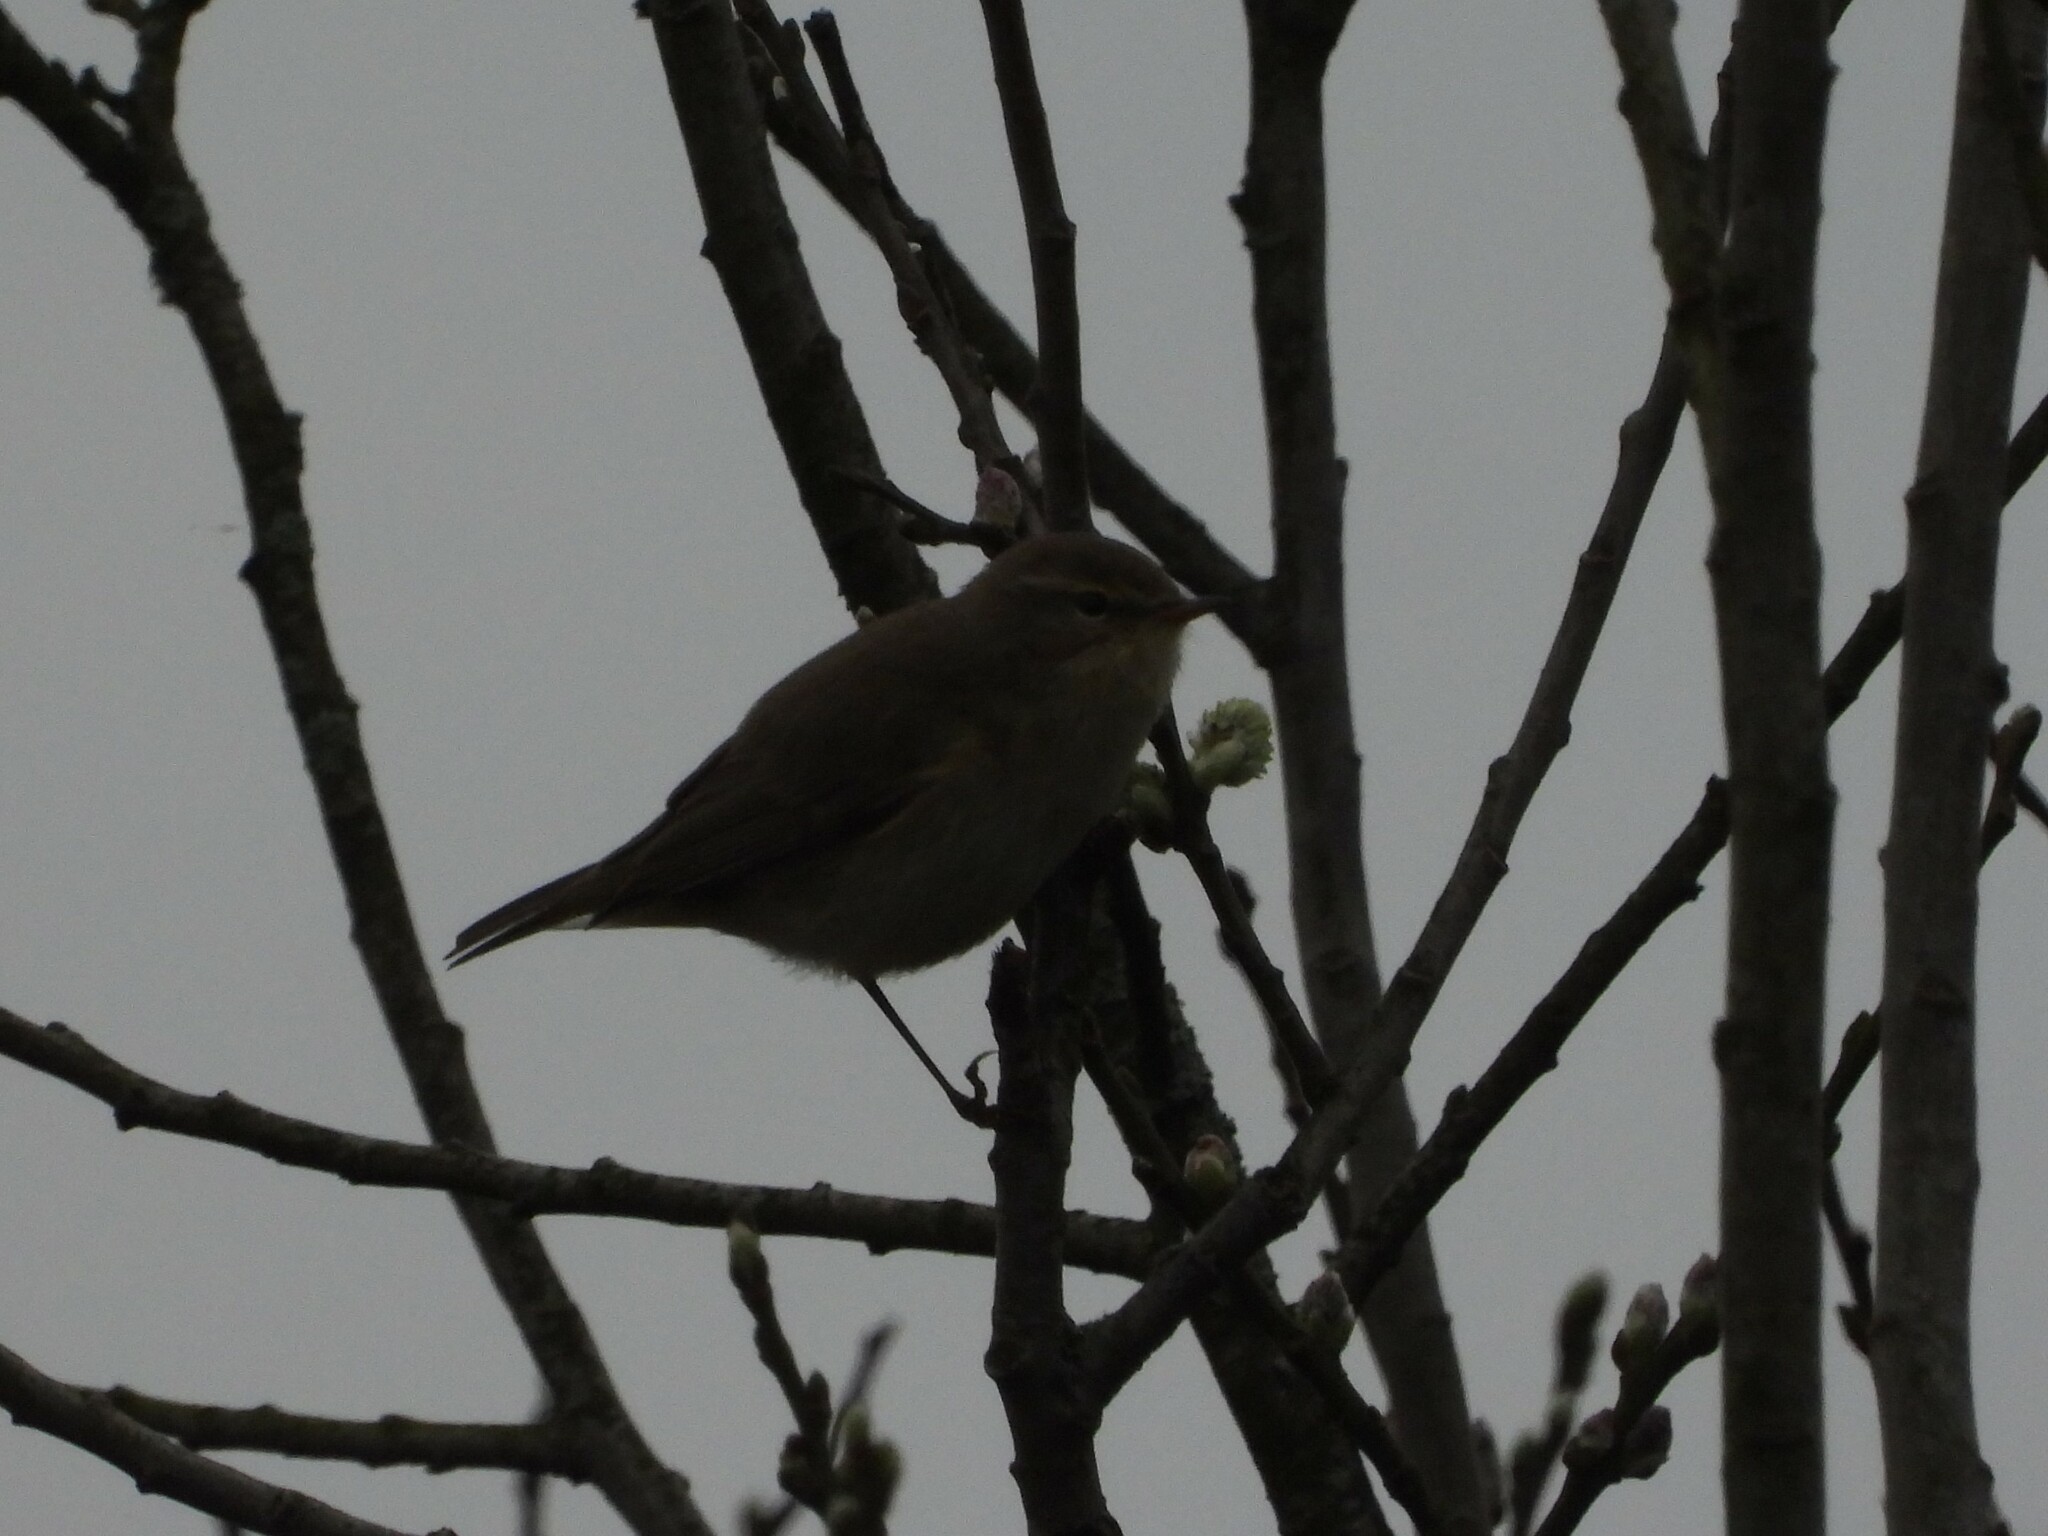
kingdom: Animalia
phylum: Chordata
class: Aves
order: Passeriformes
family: Phylloscopidae
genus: Phylloscopus
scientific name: Phylloscopus collybita
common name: Common chiffchaff
